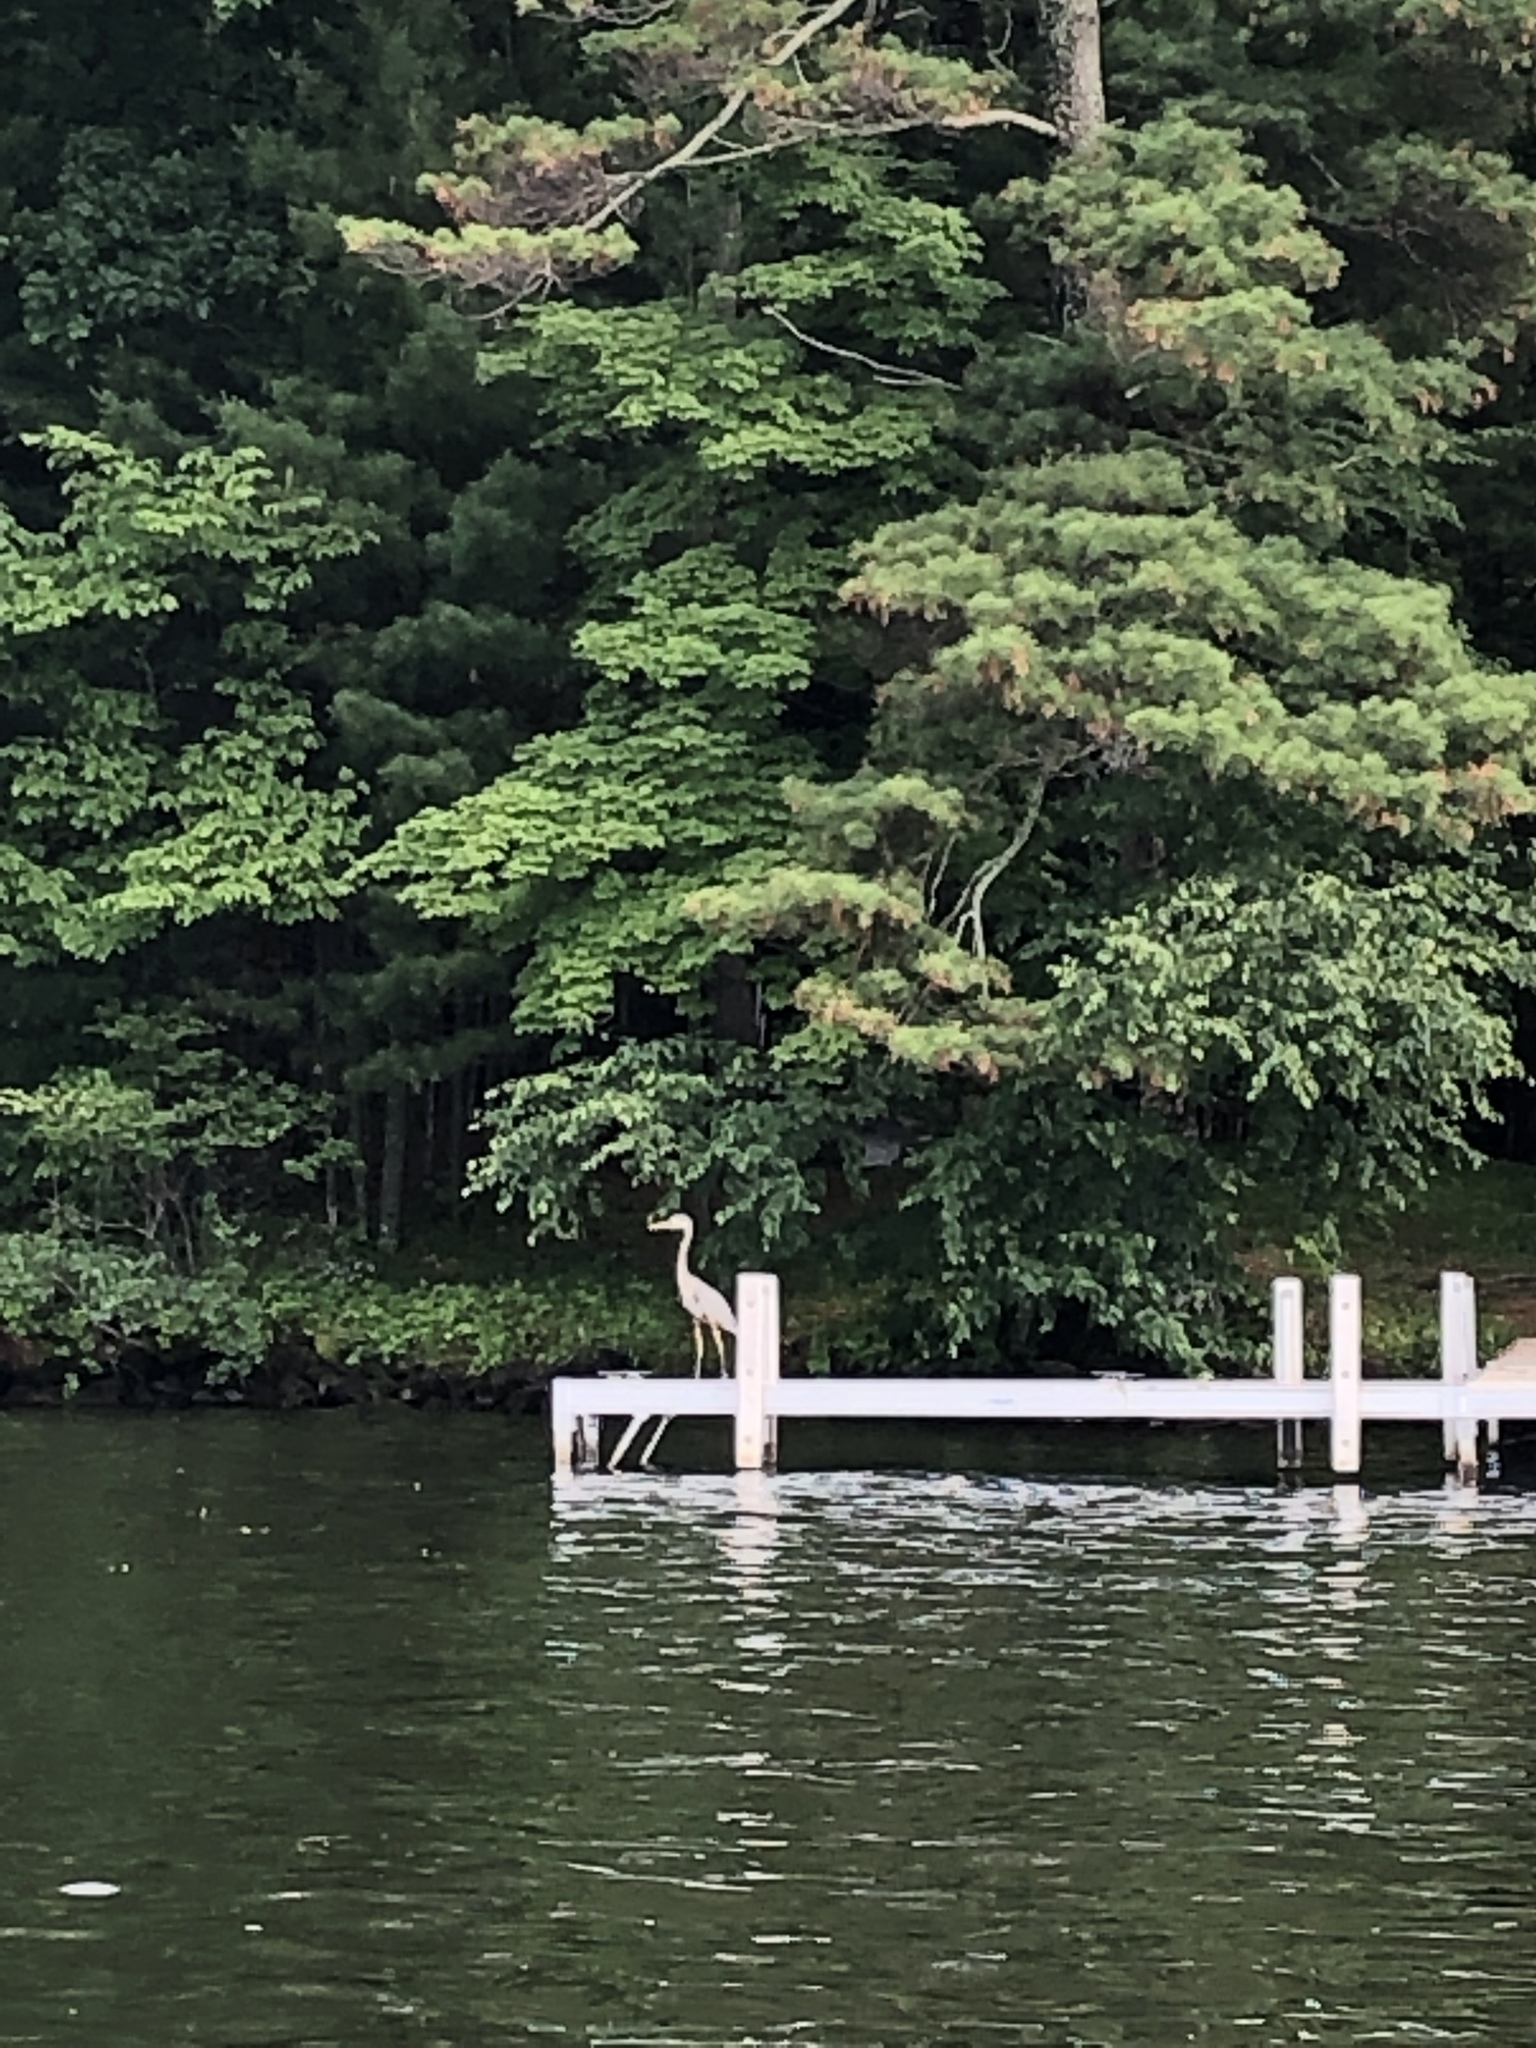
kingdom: Animalia
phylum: Chordata
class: Aves
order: Pelecaniformes
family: Ardeidae
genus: Ardea
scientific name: Ardea herodias
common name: Great blue heron
